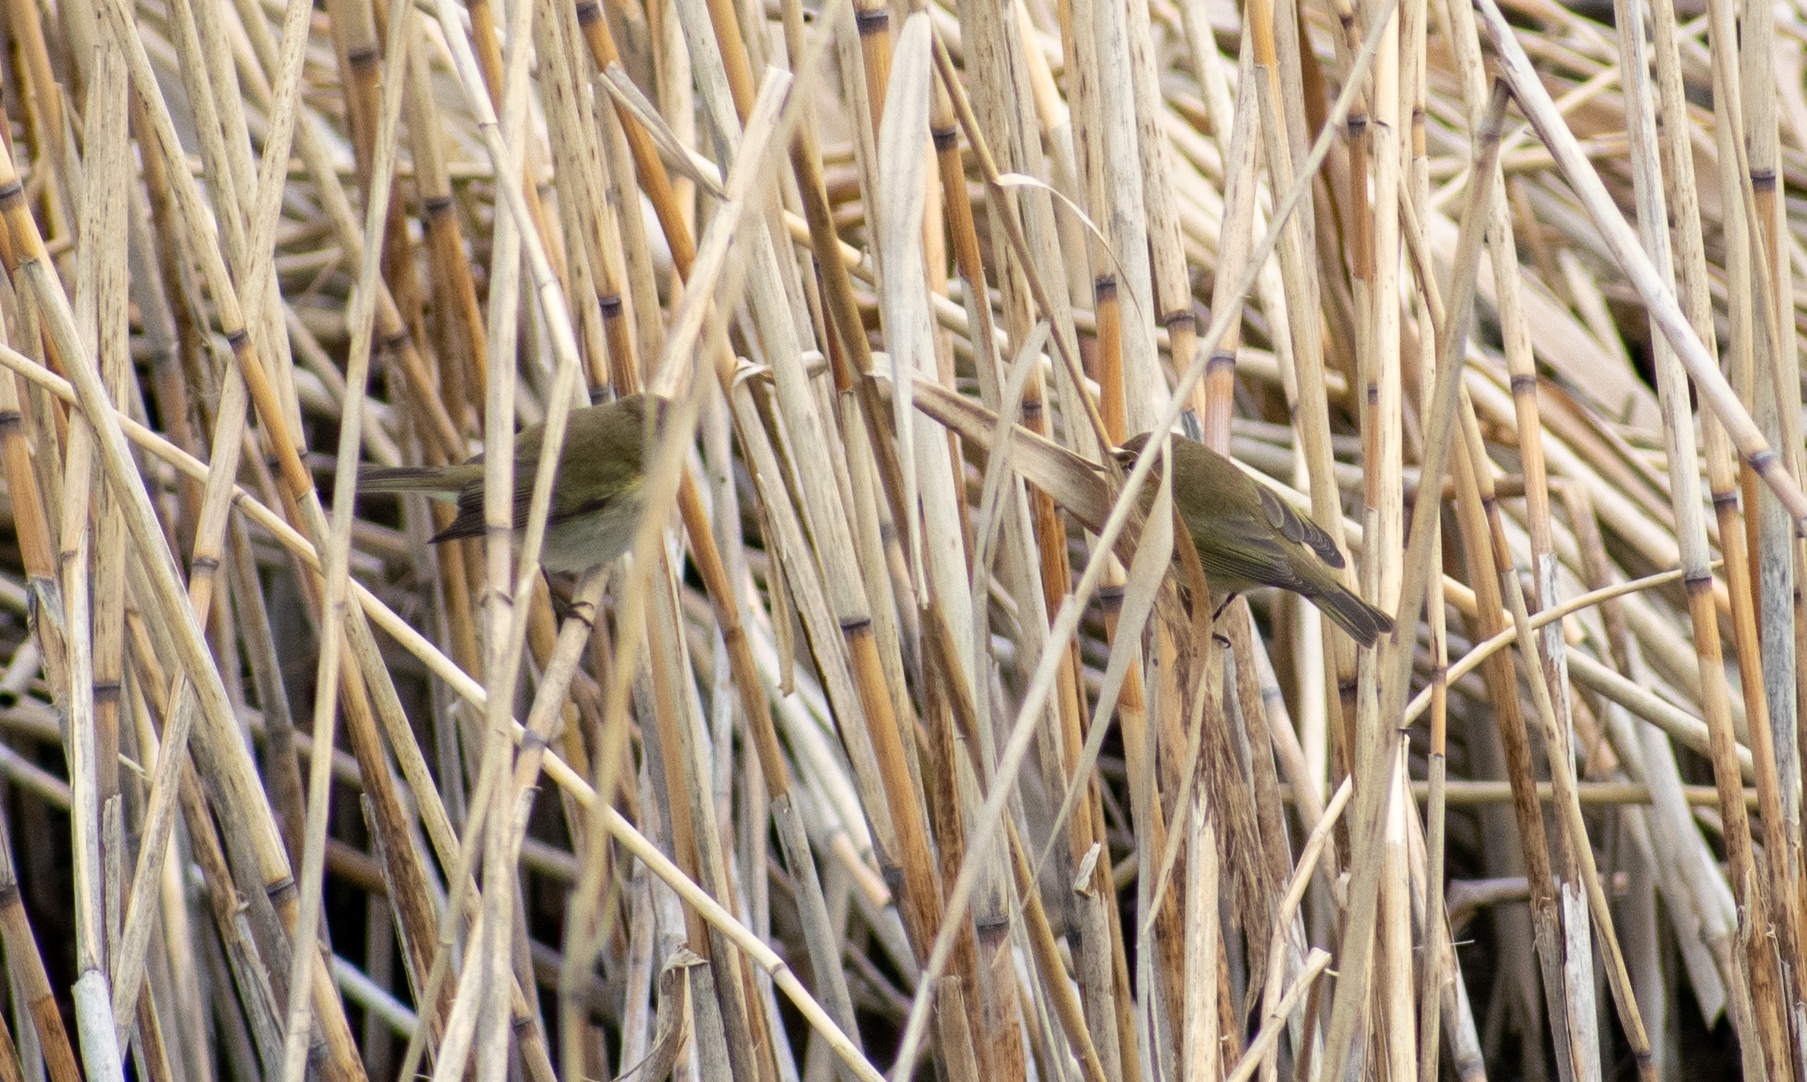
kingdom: Animalia
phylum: Chordata
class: Aves
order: Passeriformes
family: Phylloscopidae
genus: Phylloscopus
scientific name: Phylloscopus collybita
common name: Common chiffchaff
